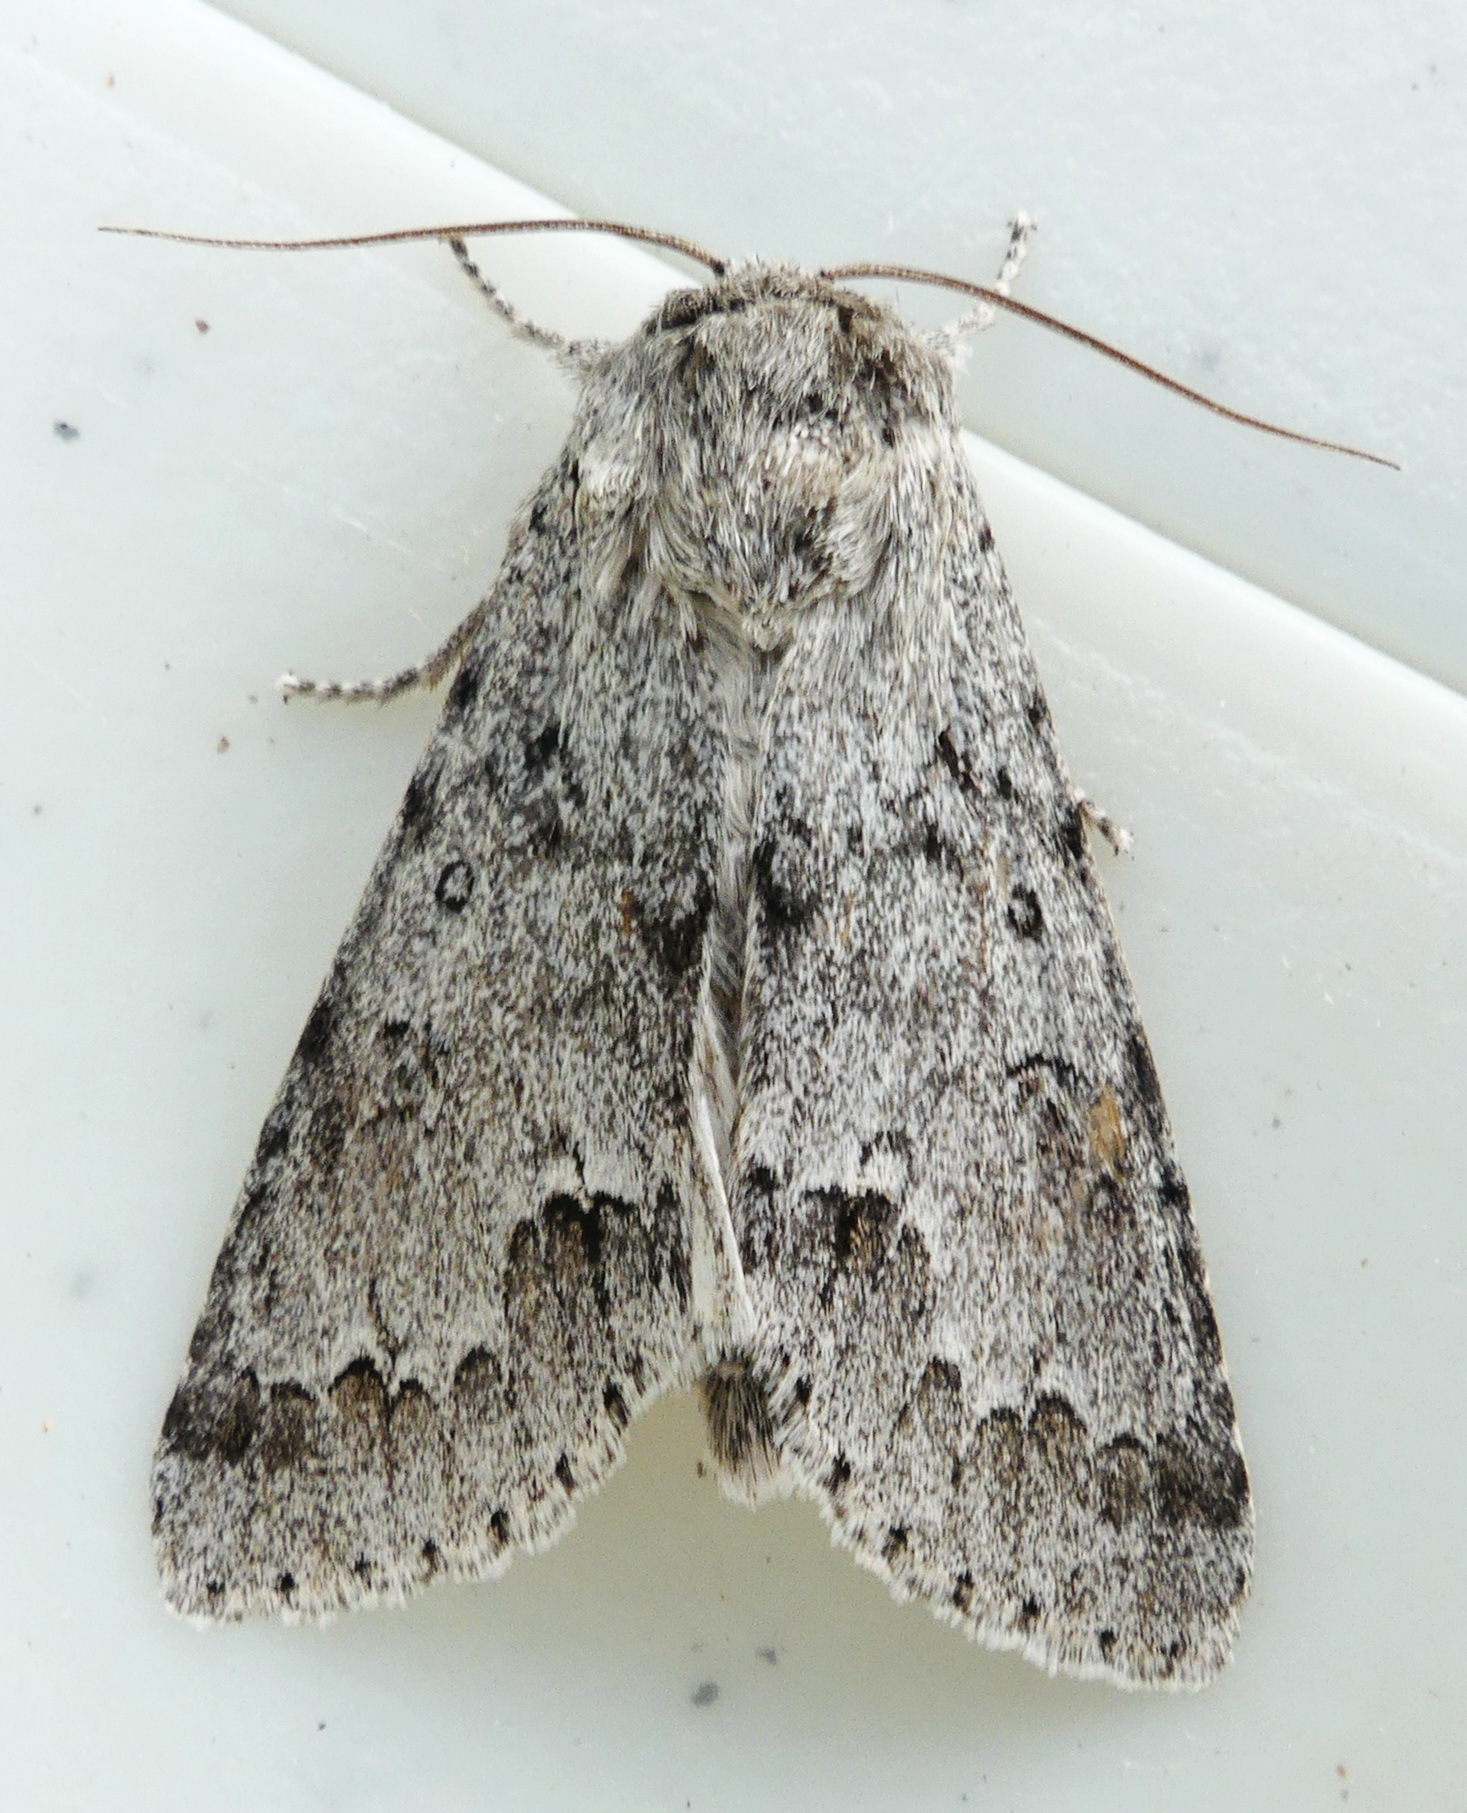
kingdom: Animalia
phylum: Arthropoda
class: Insecta
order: Lepidoptera
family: Noctuidae
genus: Acronicta
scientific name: Acronicta insita
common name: Large gray dagger
